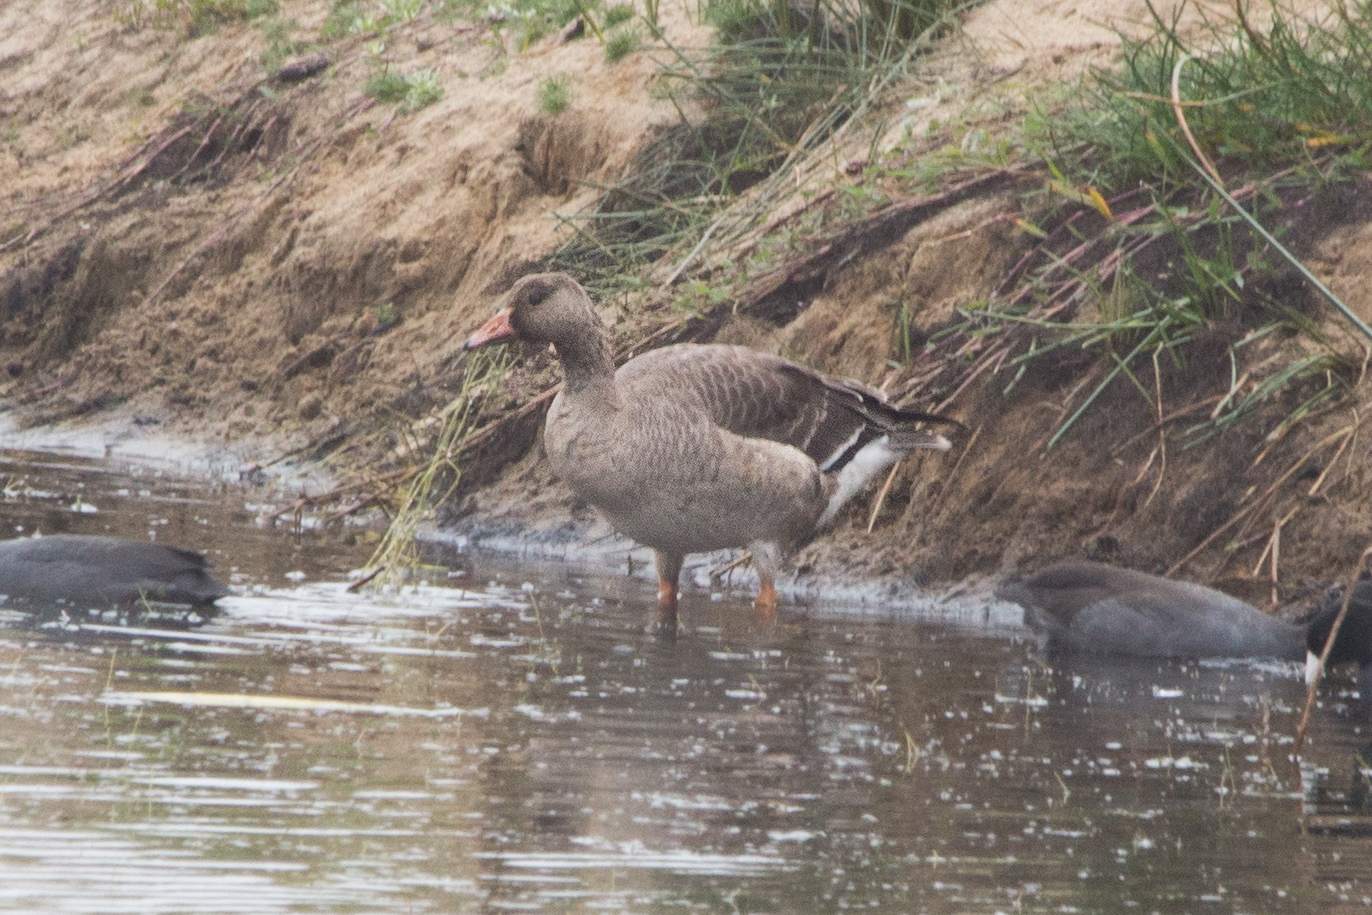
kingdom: Animalia
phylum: Chordata
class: Aves
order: Anseriformes
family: Anatidae
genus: Anser
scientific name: Anser albifrons
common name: Greater white-fronted goose
